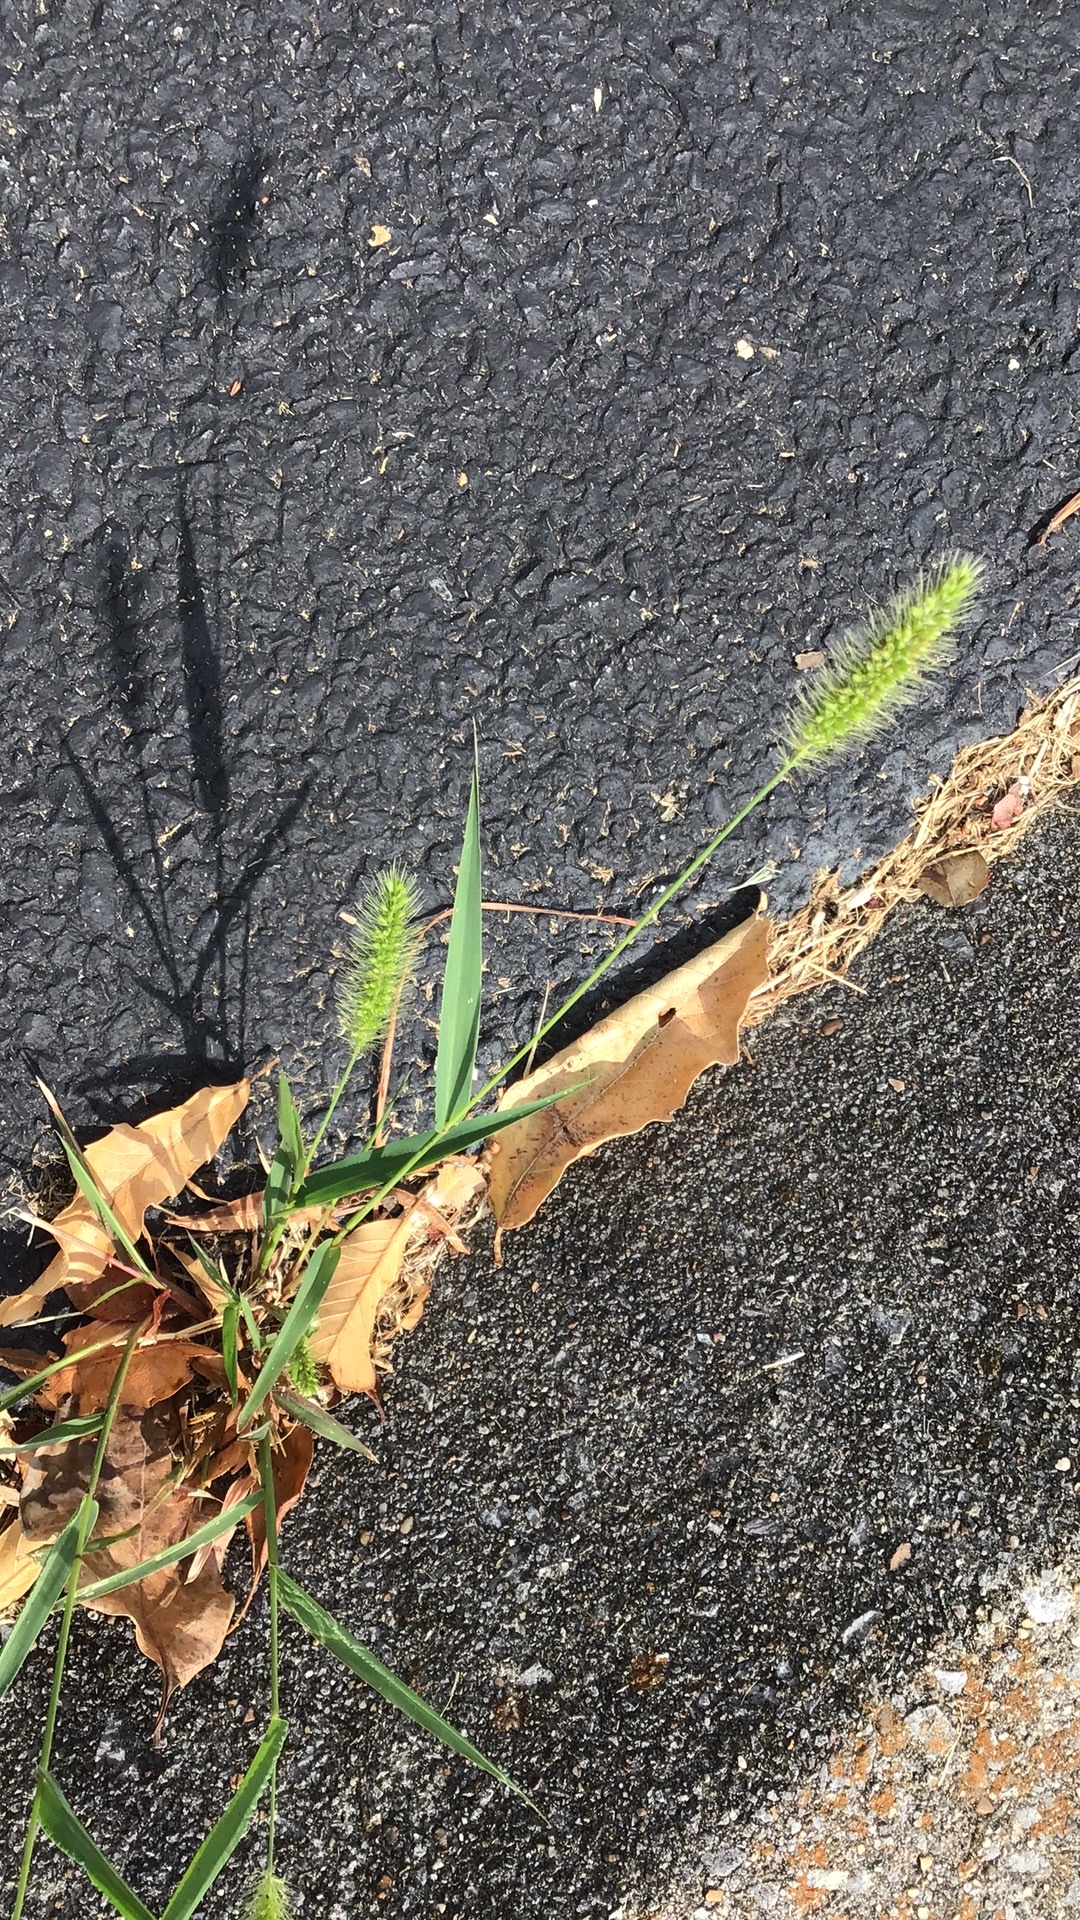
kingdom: Plantae
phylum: Tracheophyta
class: Liliopsida
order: Poales
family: Poaceae
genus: Setaria
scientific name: Setaria viridis
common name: Green bristlegrass
